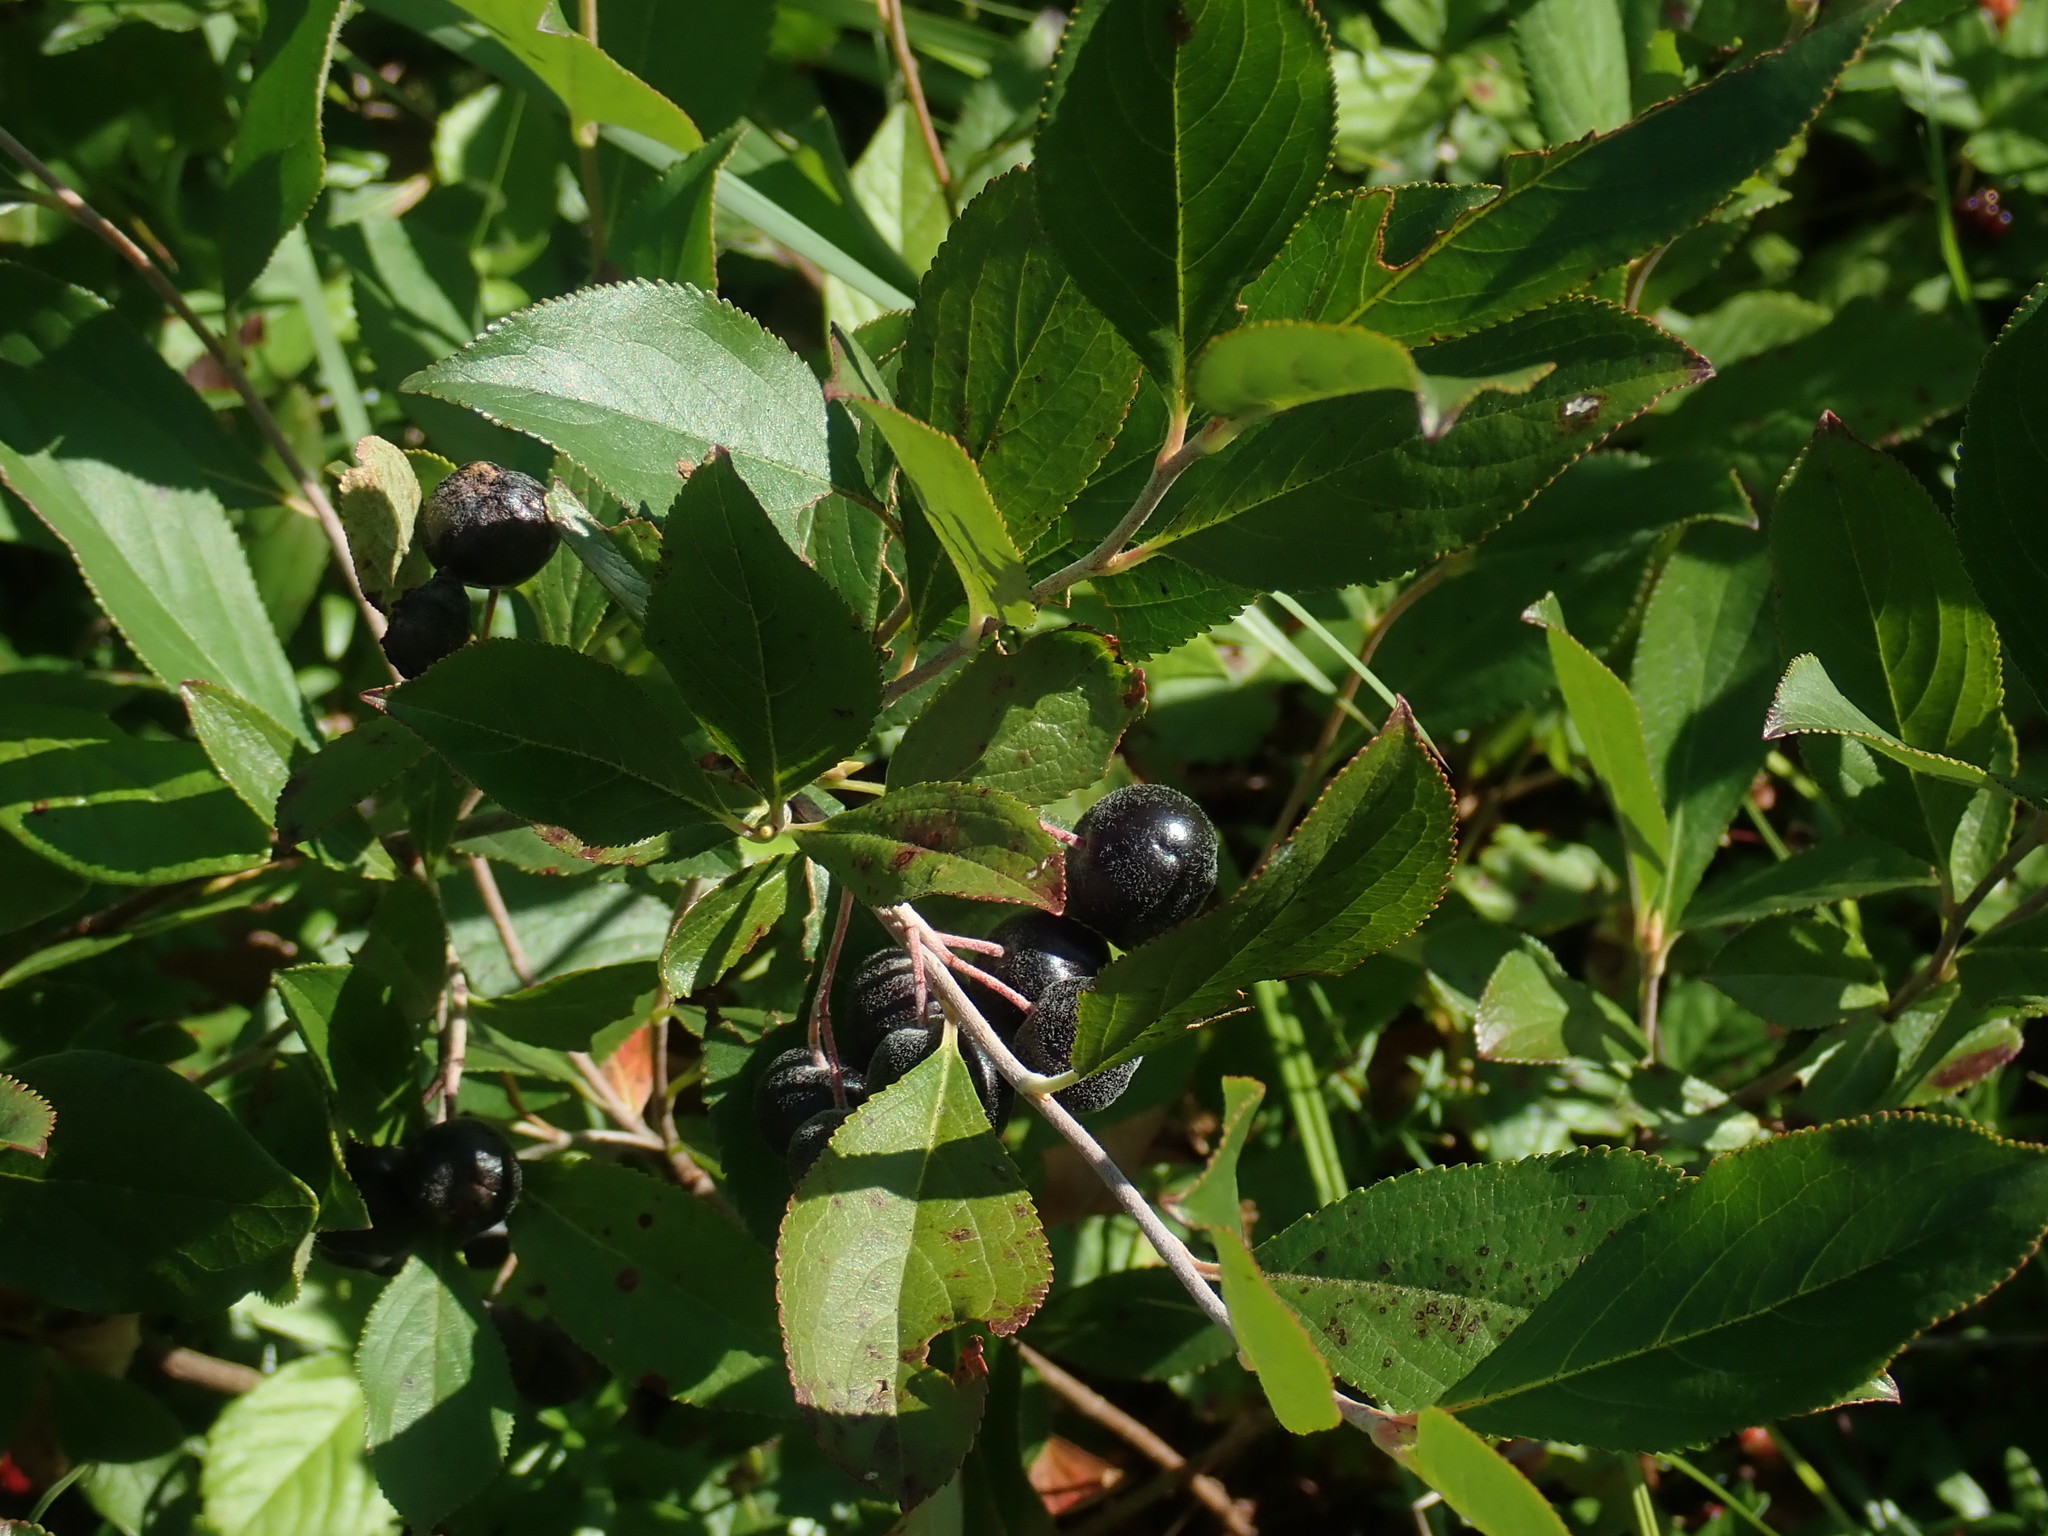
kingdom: Plantae
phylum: Tracheophyta
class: Magnoliopsida
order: Rosales
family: Rosaceae
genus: Aronia
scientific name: Aronia melanocarpa
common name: Black chokeberry
